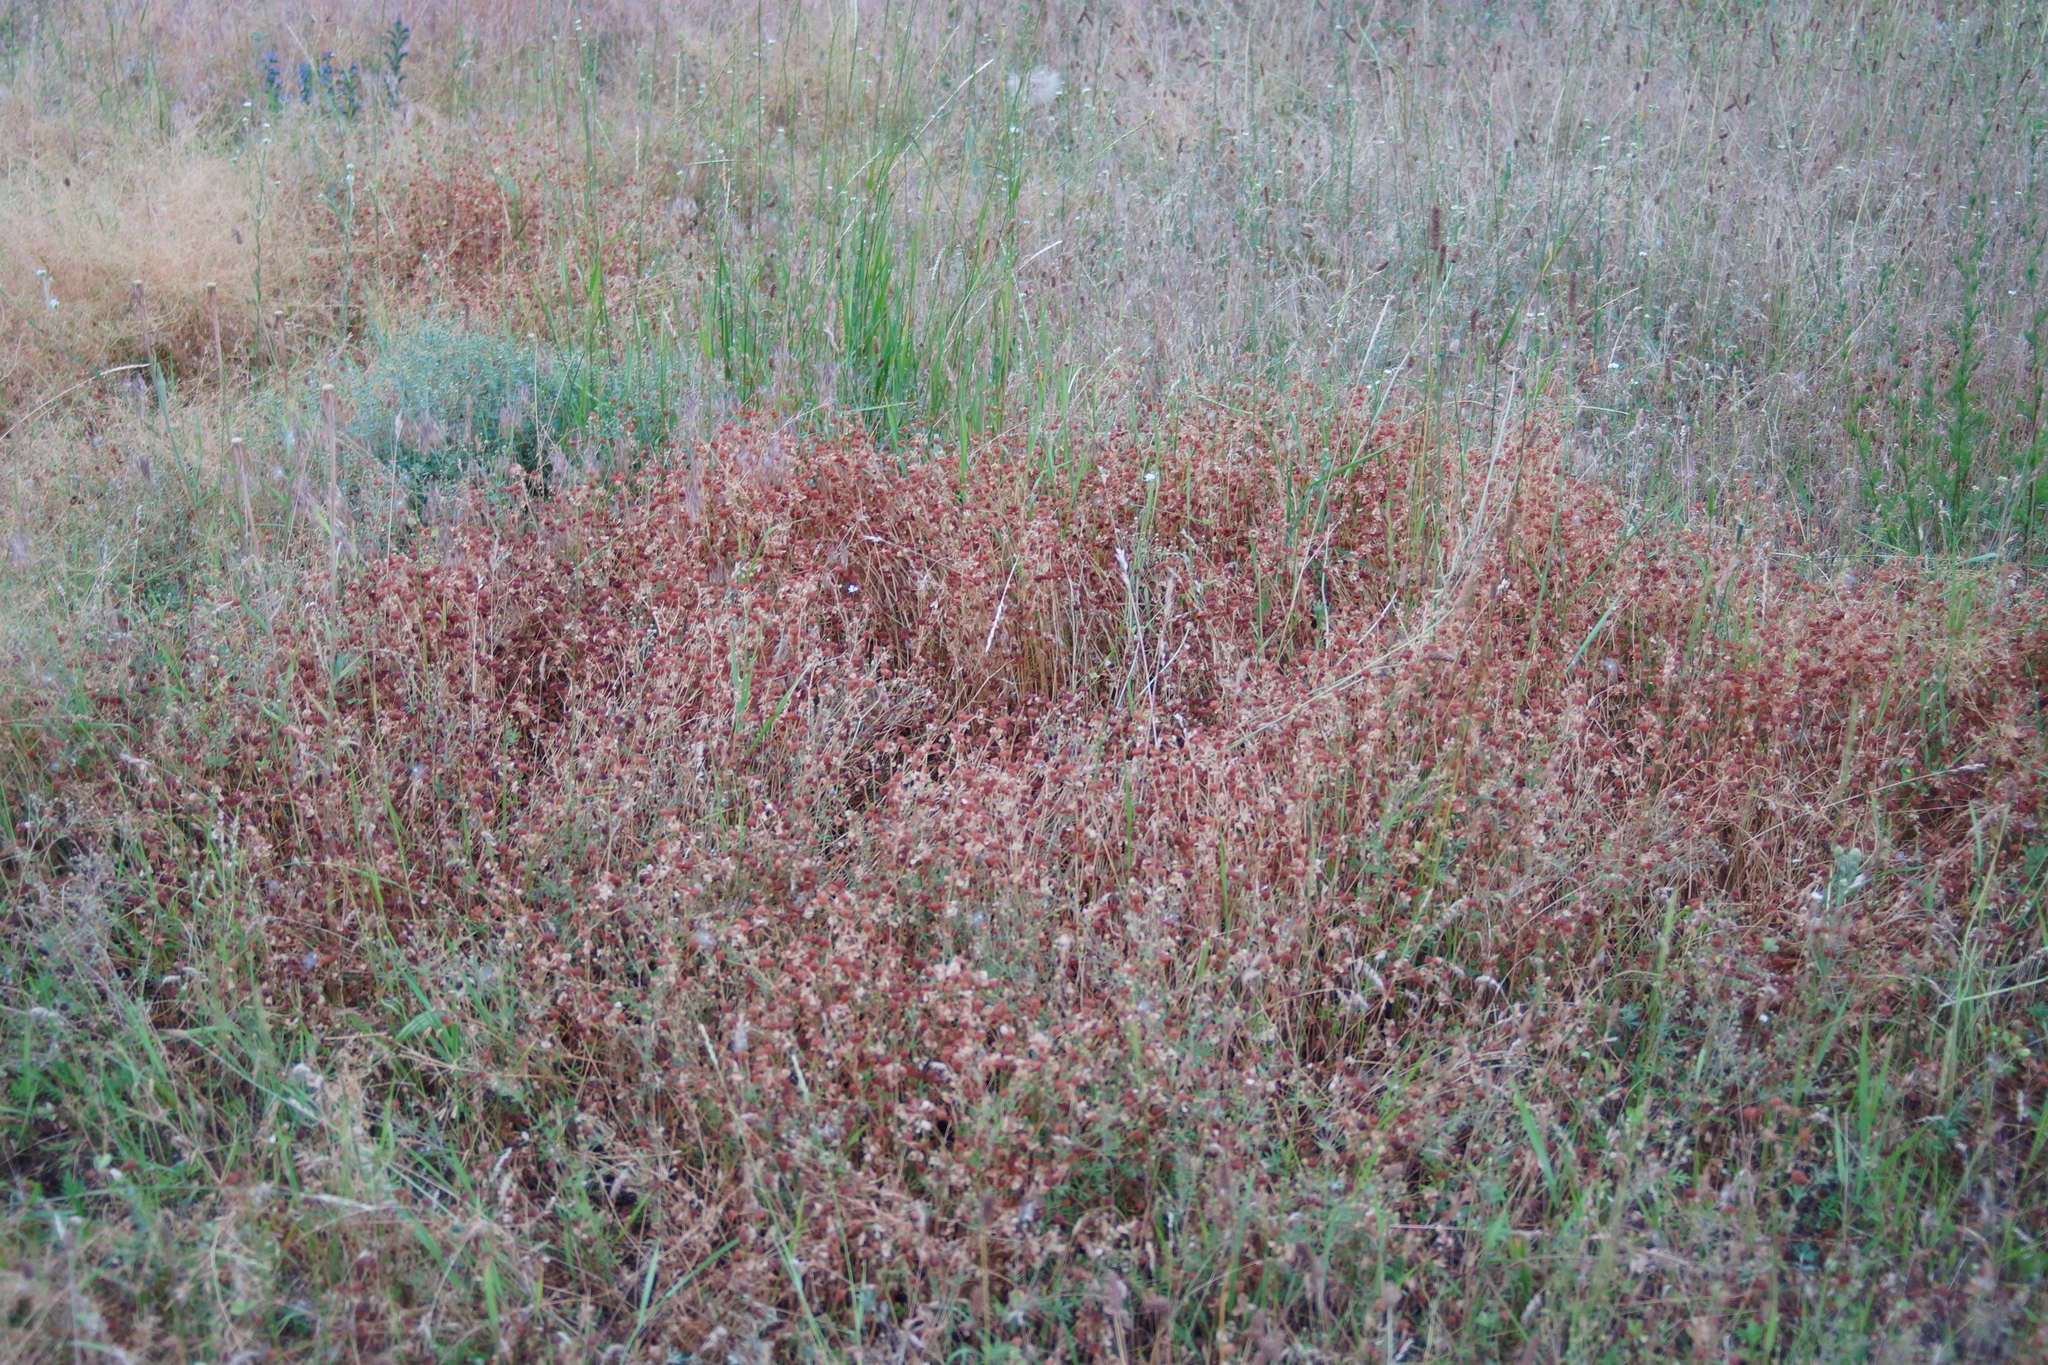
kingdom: Plantae
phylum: Tracheophyta
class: Magnoliopsida
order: Fabales
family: Fabaceae
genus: Trifolium
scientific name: Trifolium campestre
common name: Field clover
